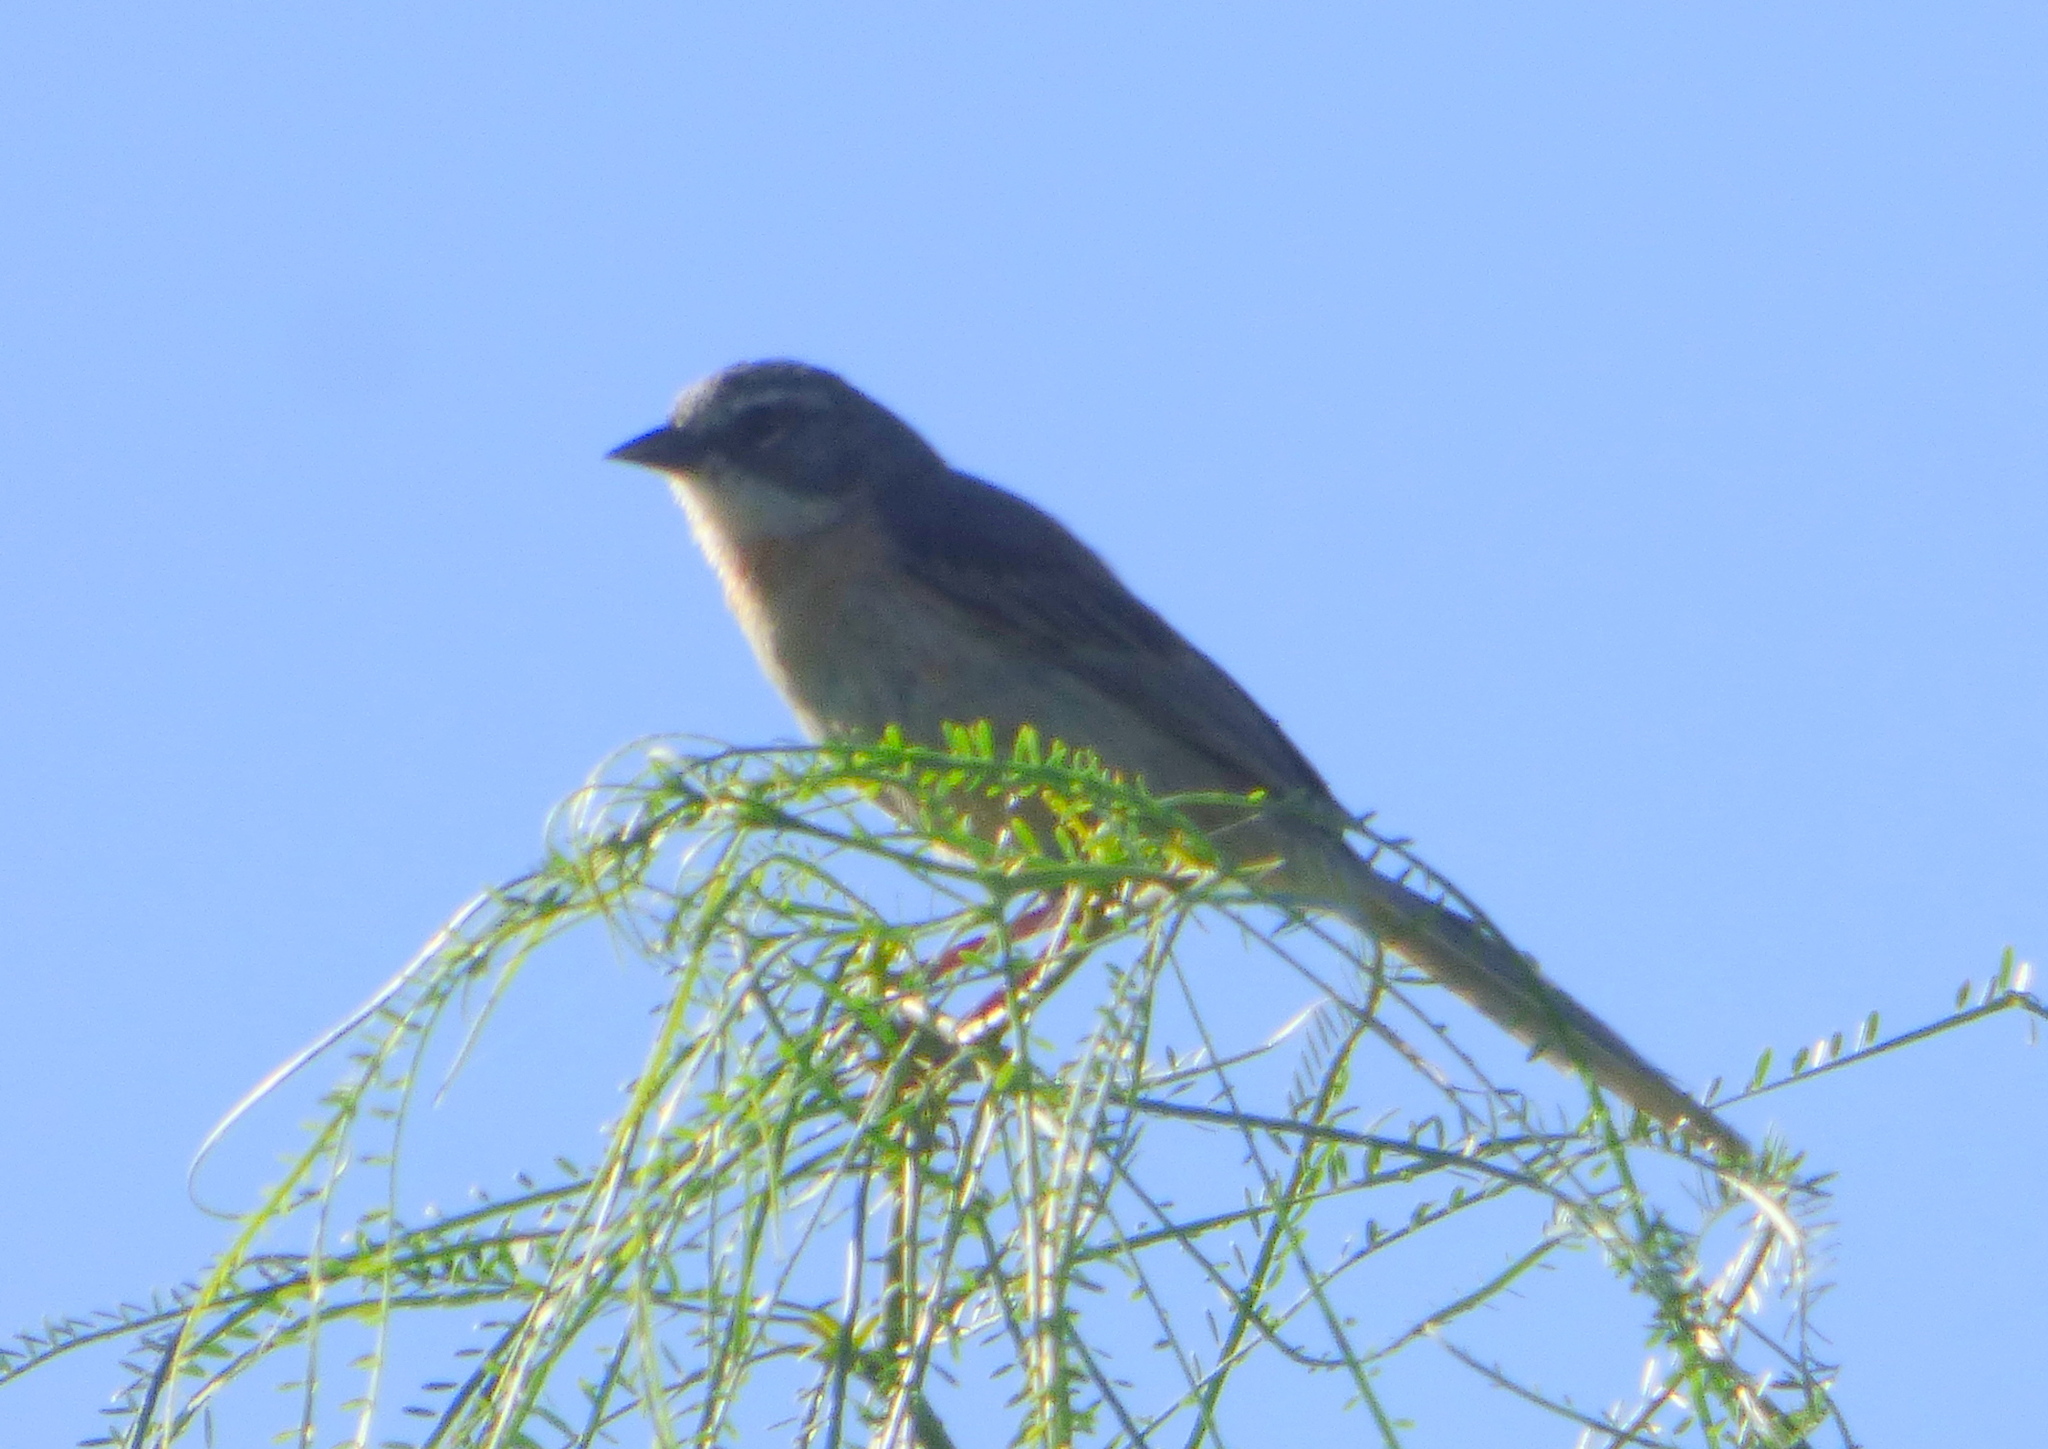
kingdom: Animalia
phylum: Chordata
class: Aves
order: Passeriformes
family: Thraupidae
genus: Donacospiza
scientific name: Donacospiza albifrons
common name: Long-tailed reed finch
